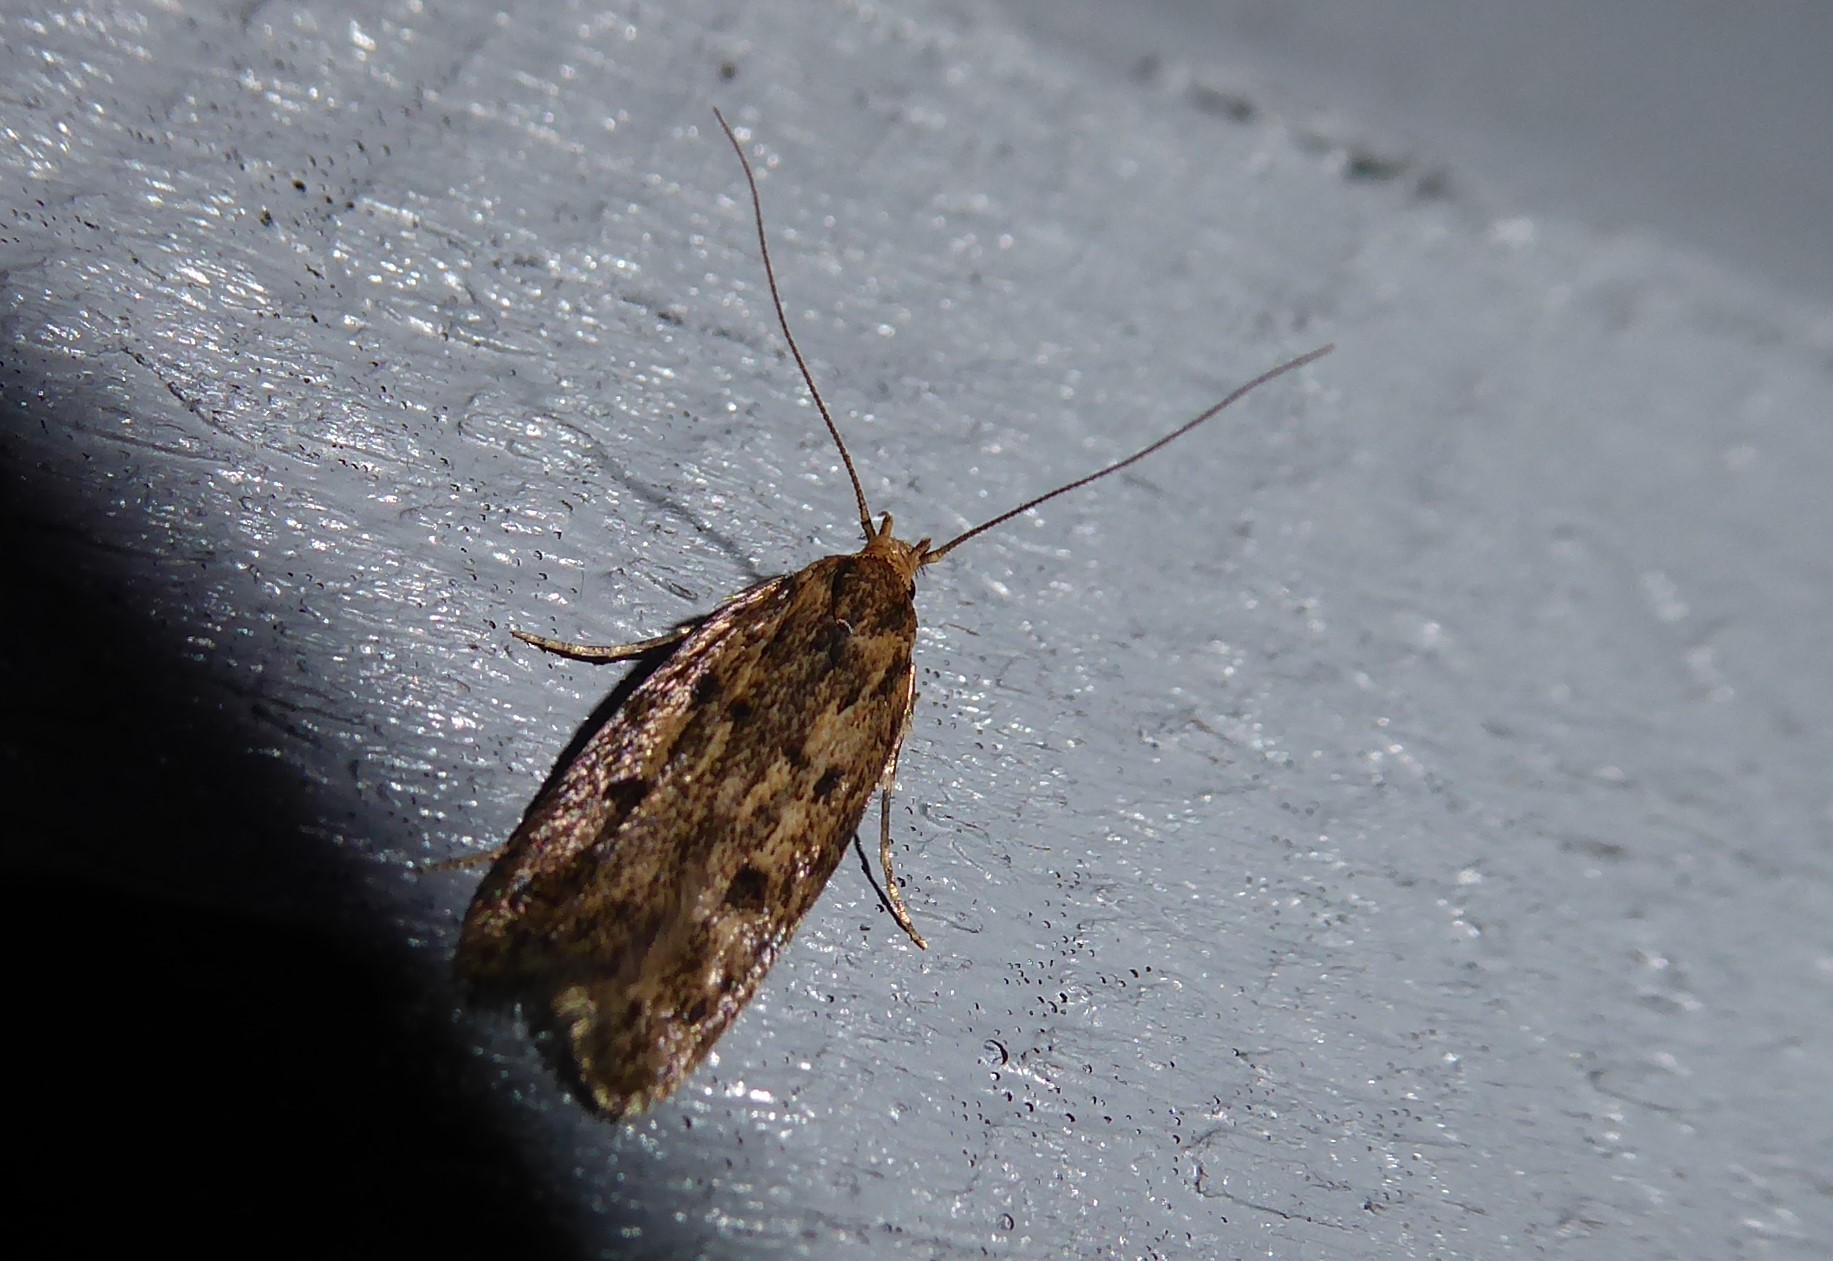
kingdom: Animalia
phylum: Arthropoda
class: Insecta
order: Lepidoptera
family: Oecophoridae
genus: Hofmannophila
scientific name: Hofmannophila pseudospretella
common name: Brown house moth
